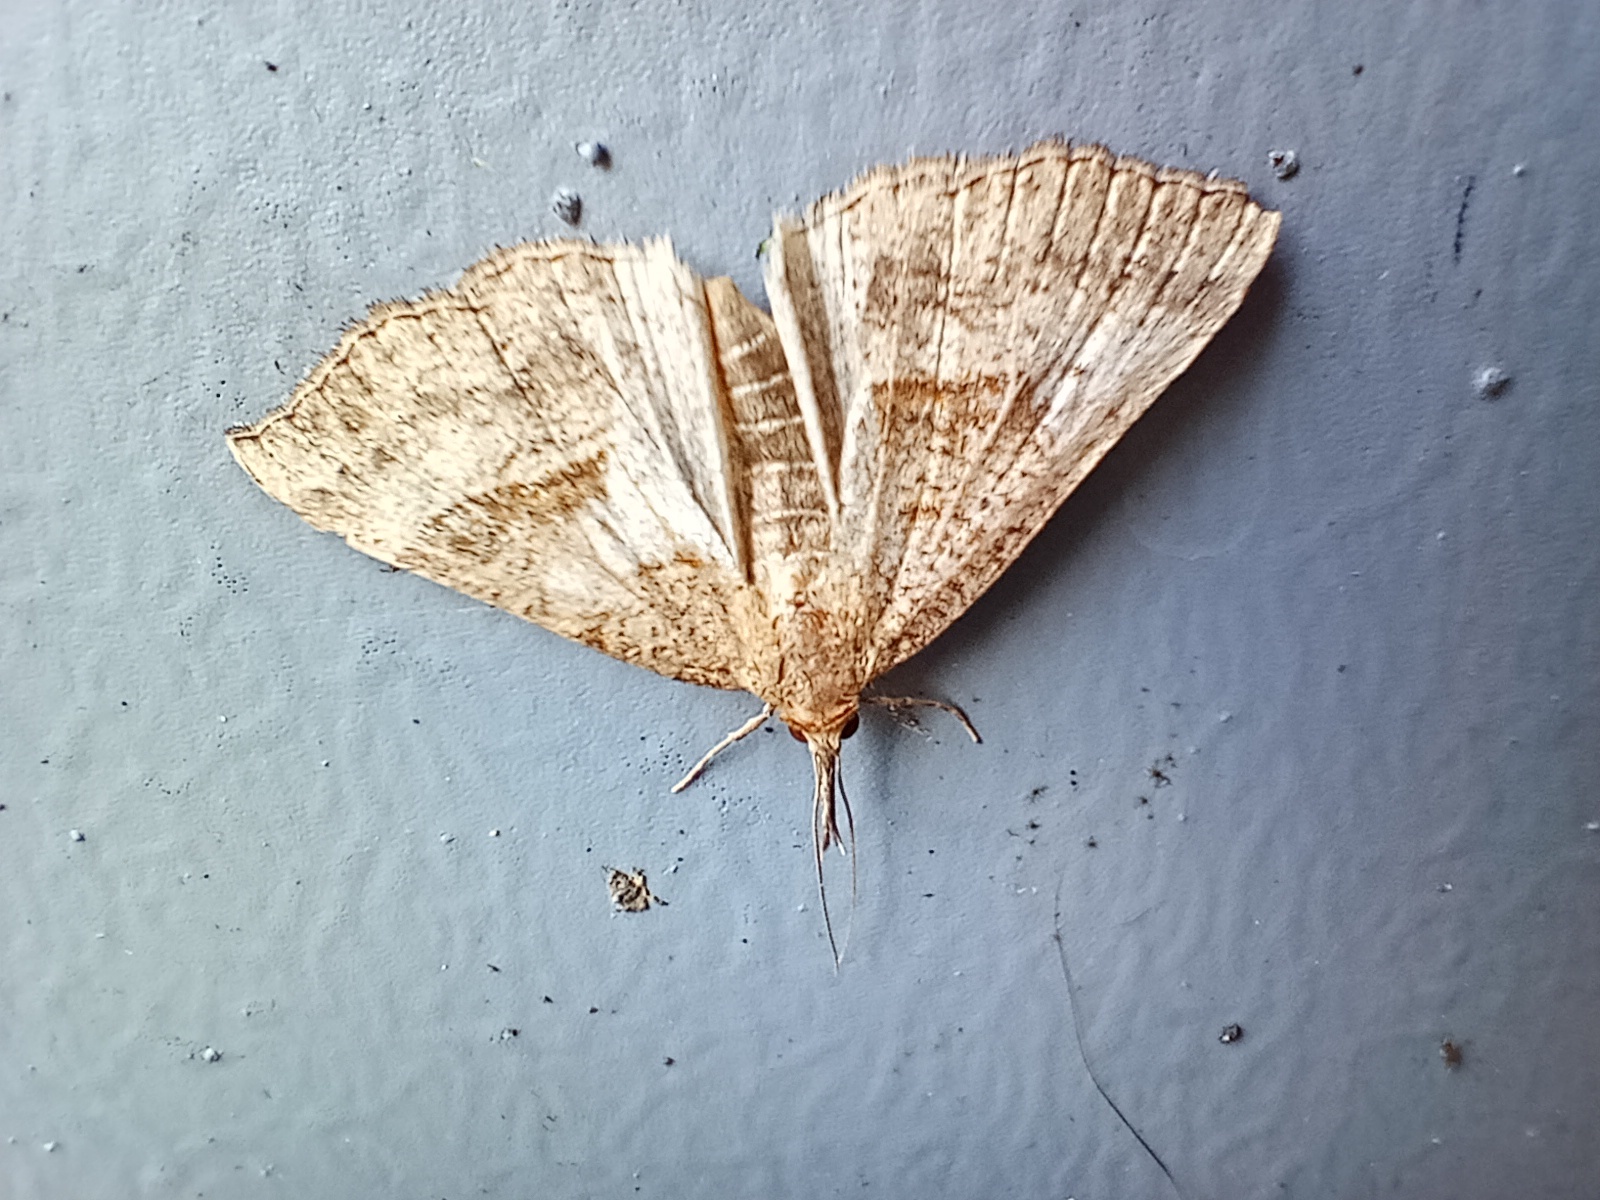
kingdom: Animalia
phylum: Arthropoda
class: Insecta
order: Lepidoptera
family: Erebidae
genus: Hypena
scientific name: Hypena proboscidalis
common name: Snout
